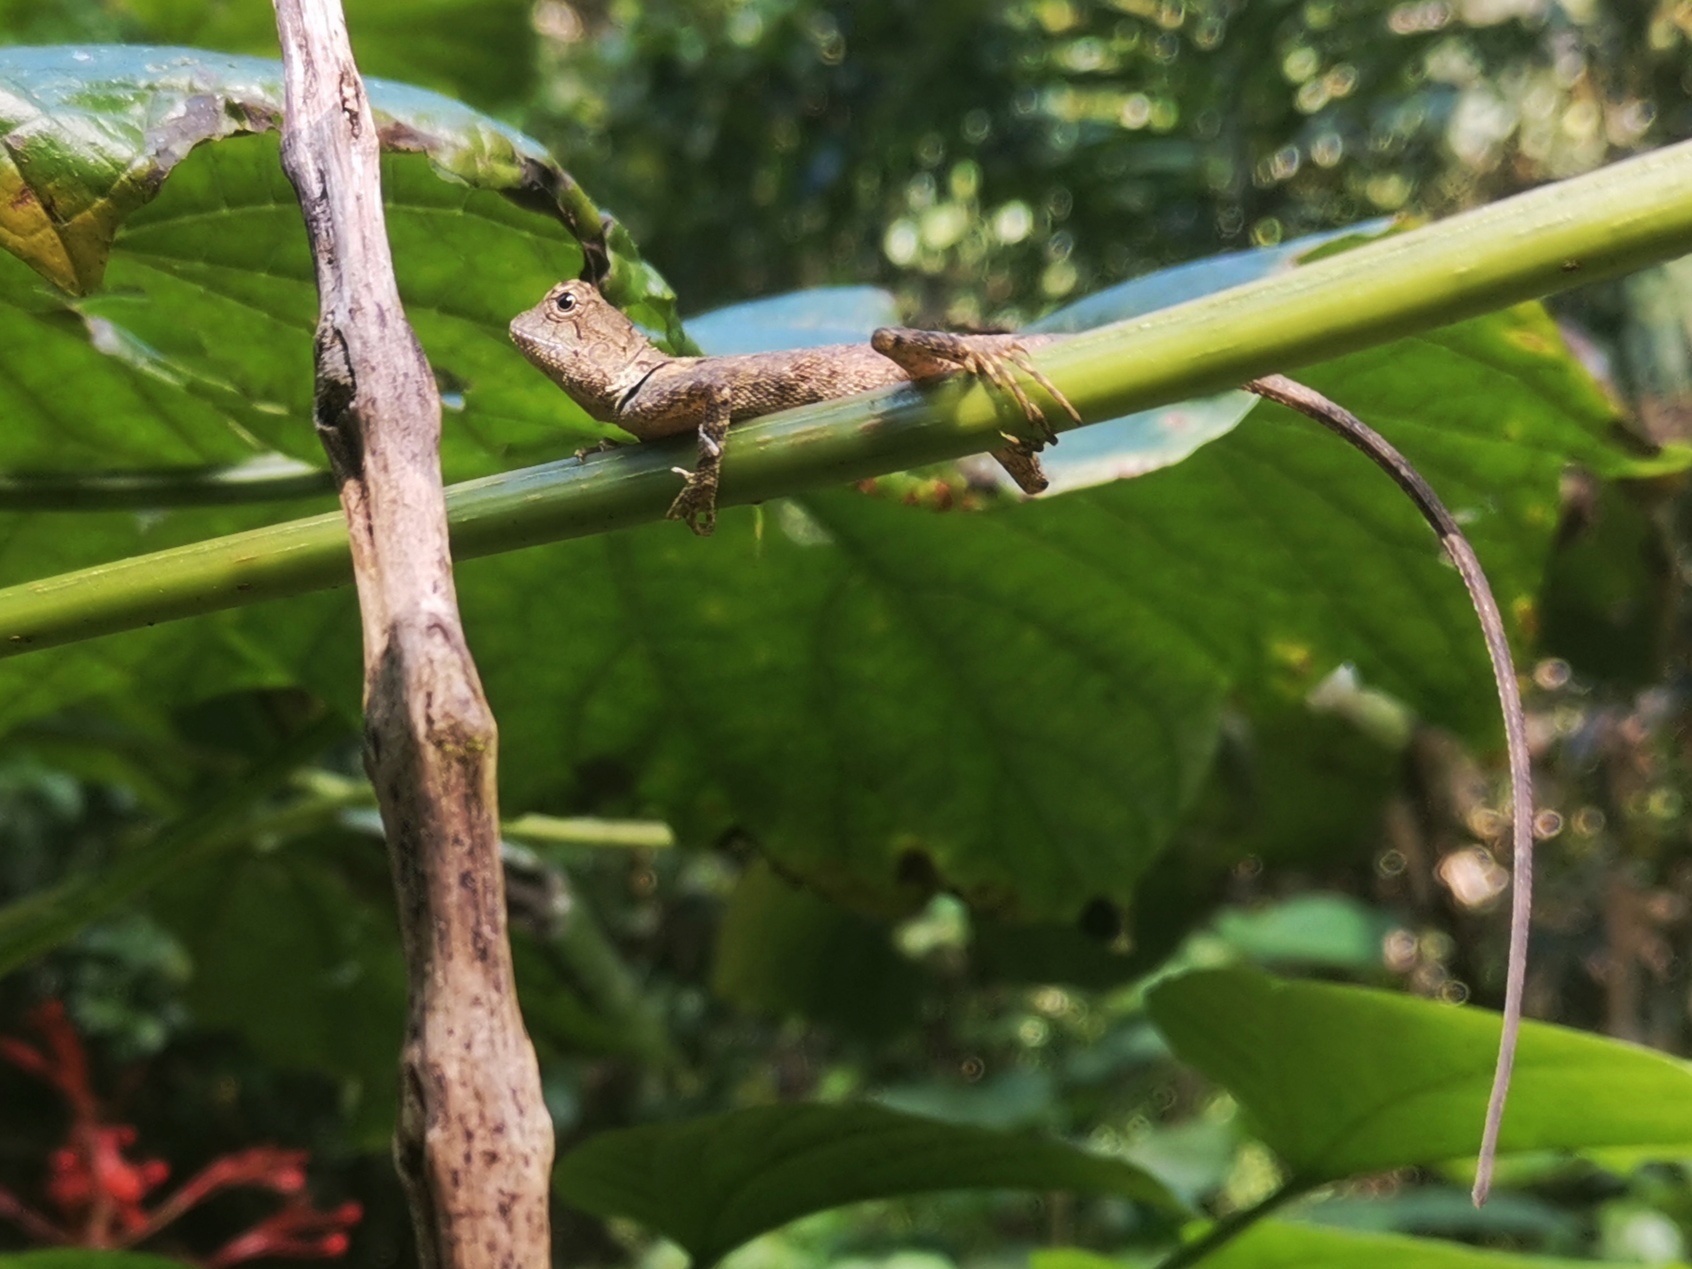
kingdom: Animalia
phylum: Chordata
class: Squamata
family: Agamidae
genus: Monilesaurus
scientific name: Monilesaurus rouxii
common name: Roux's forest lizard
